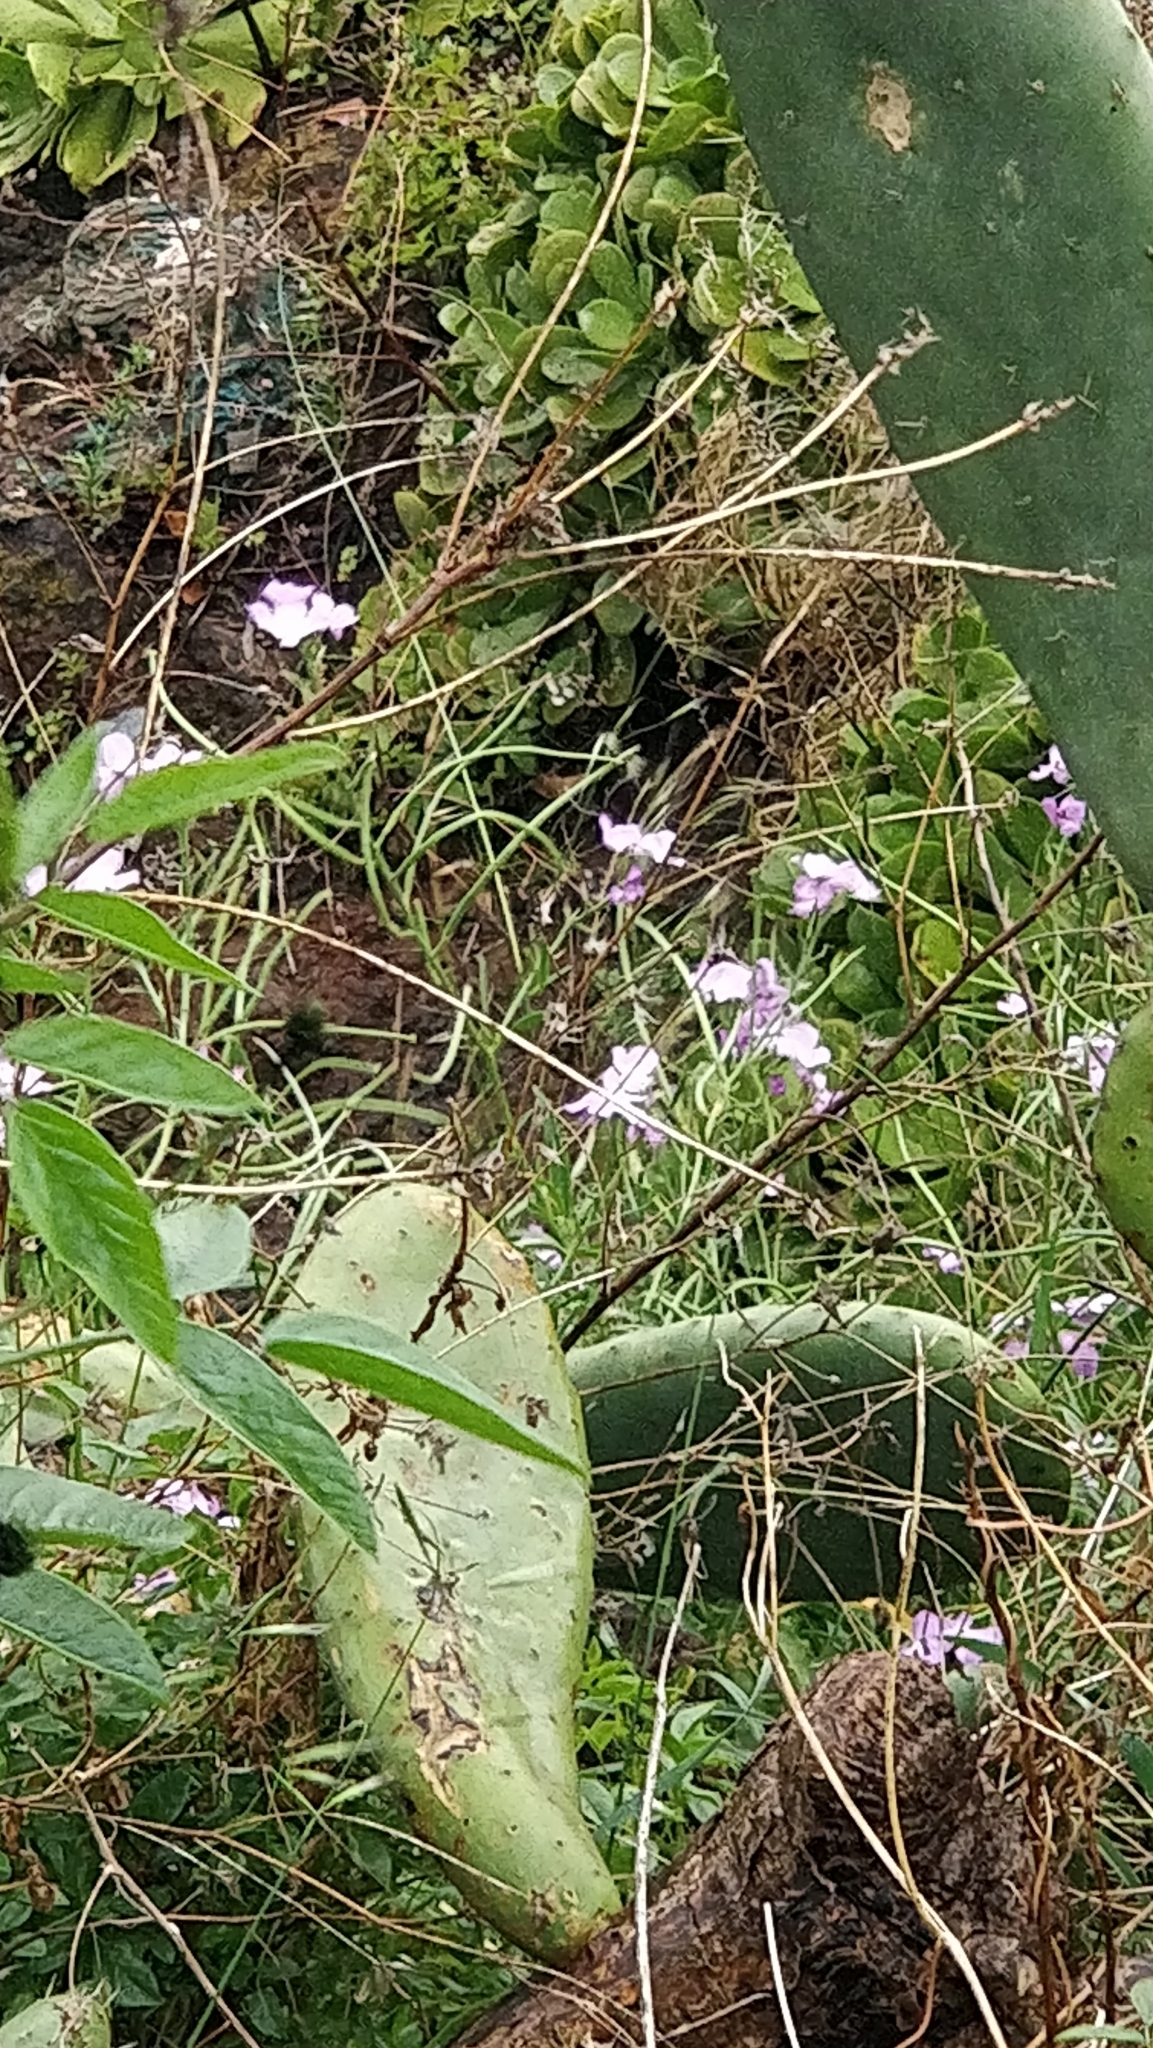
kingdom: Plantae
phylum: Tracheophyta
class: Magnoliopsida
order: Brassicales
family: Brassicaceae
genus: Matthiola
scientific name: Matthiola maderensis
